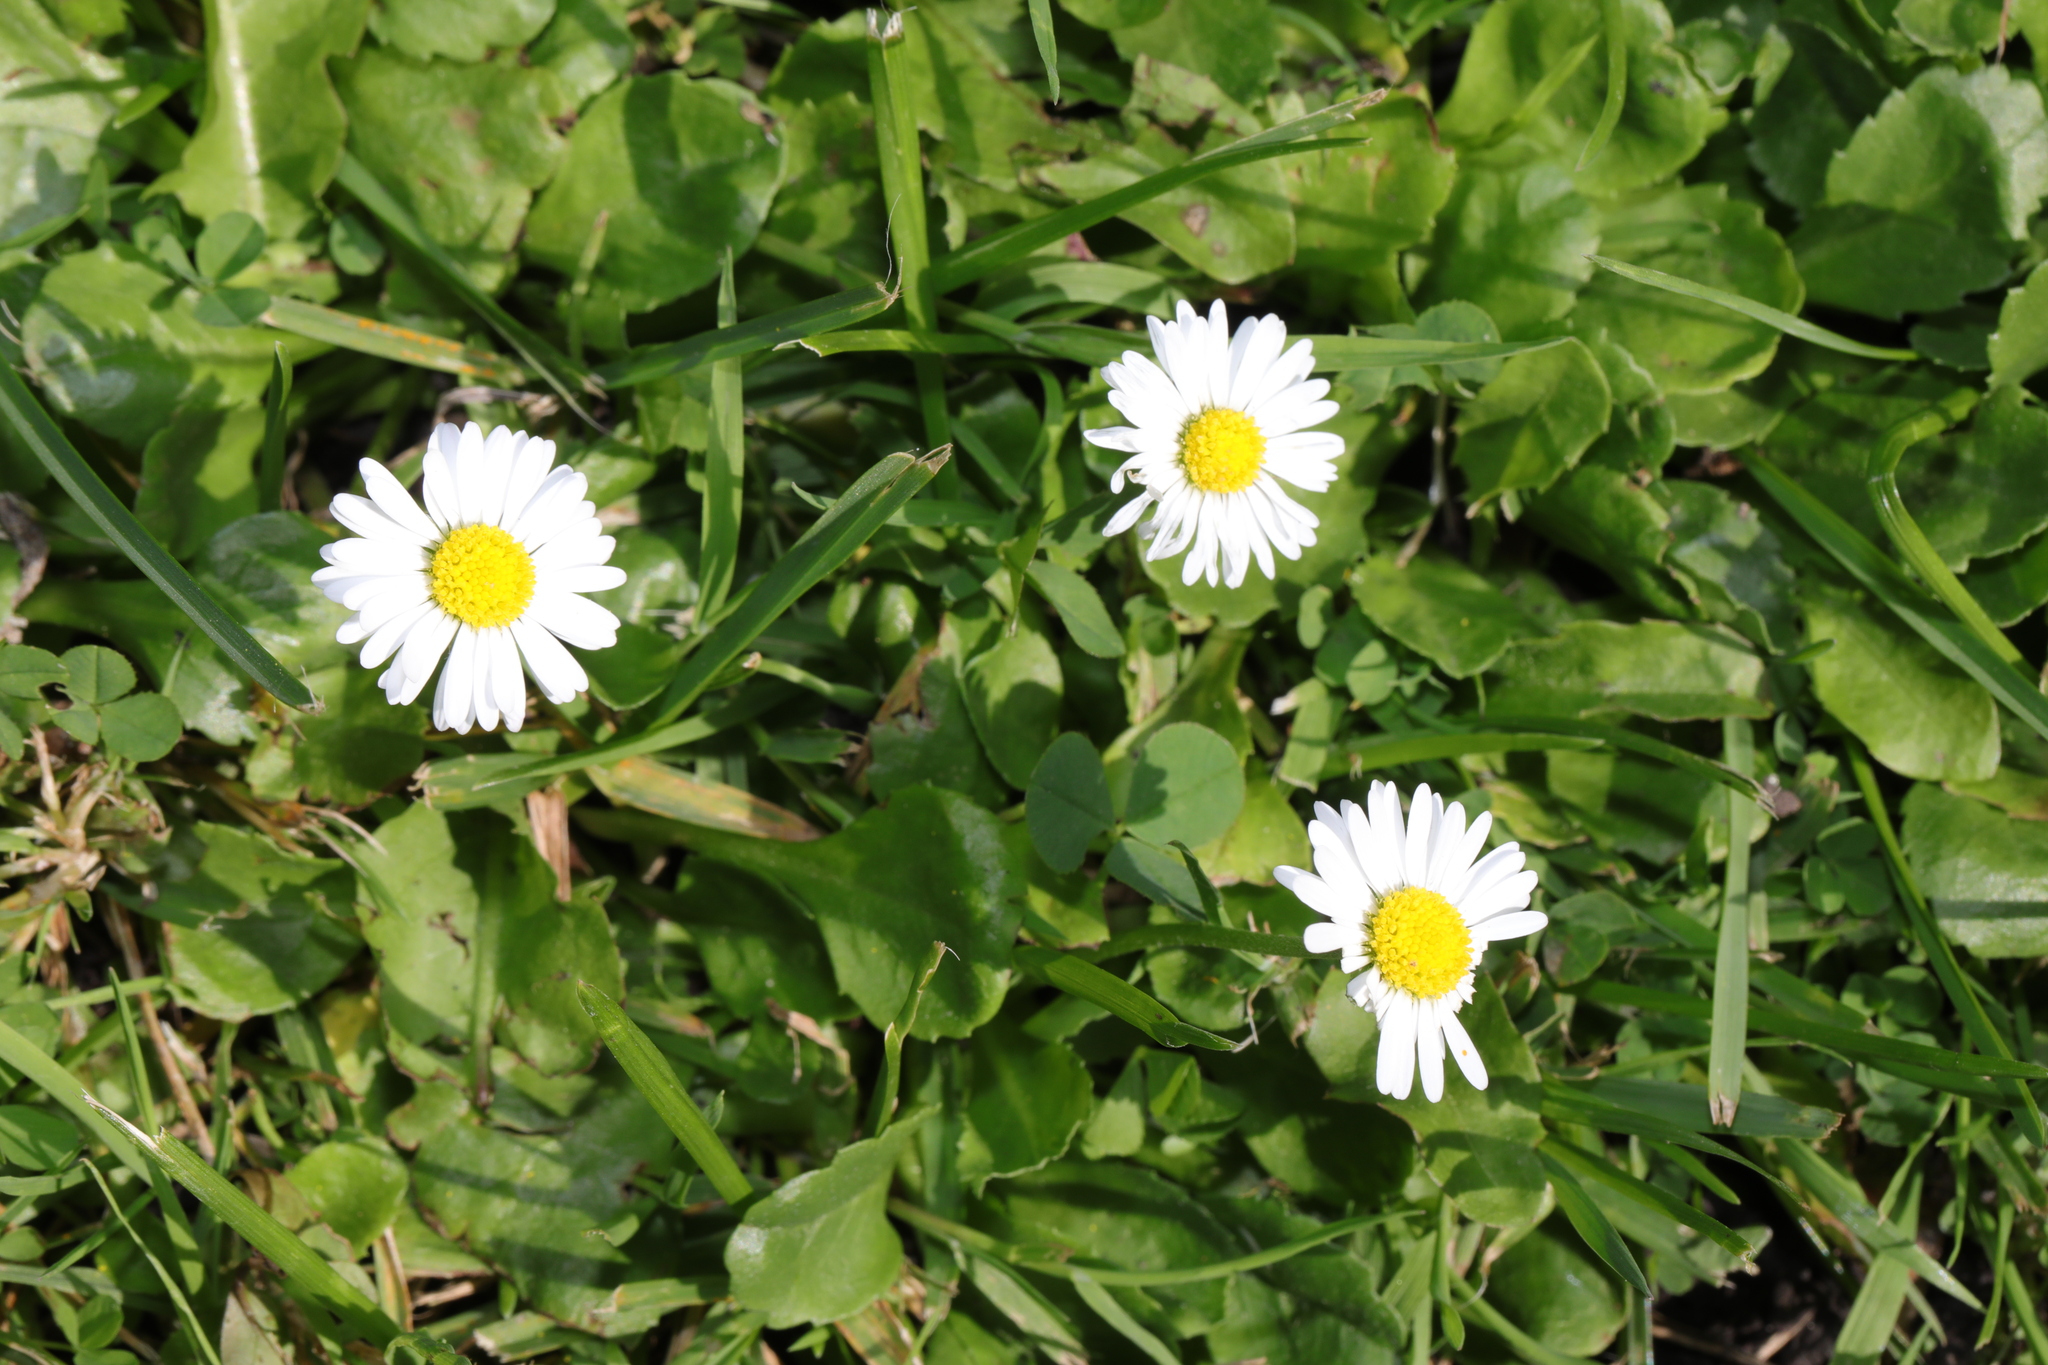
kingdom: Plantae
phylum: Tracheophyta
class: Magnoliopsida
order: Asterales
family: Asteraceae
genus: Bellis
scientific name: Bellis perennis
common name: Lawndaisy
